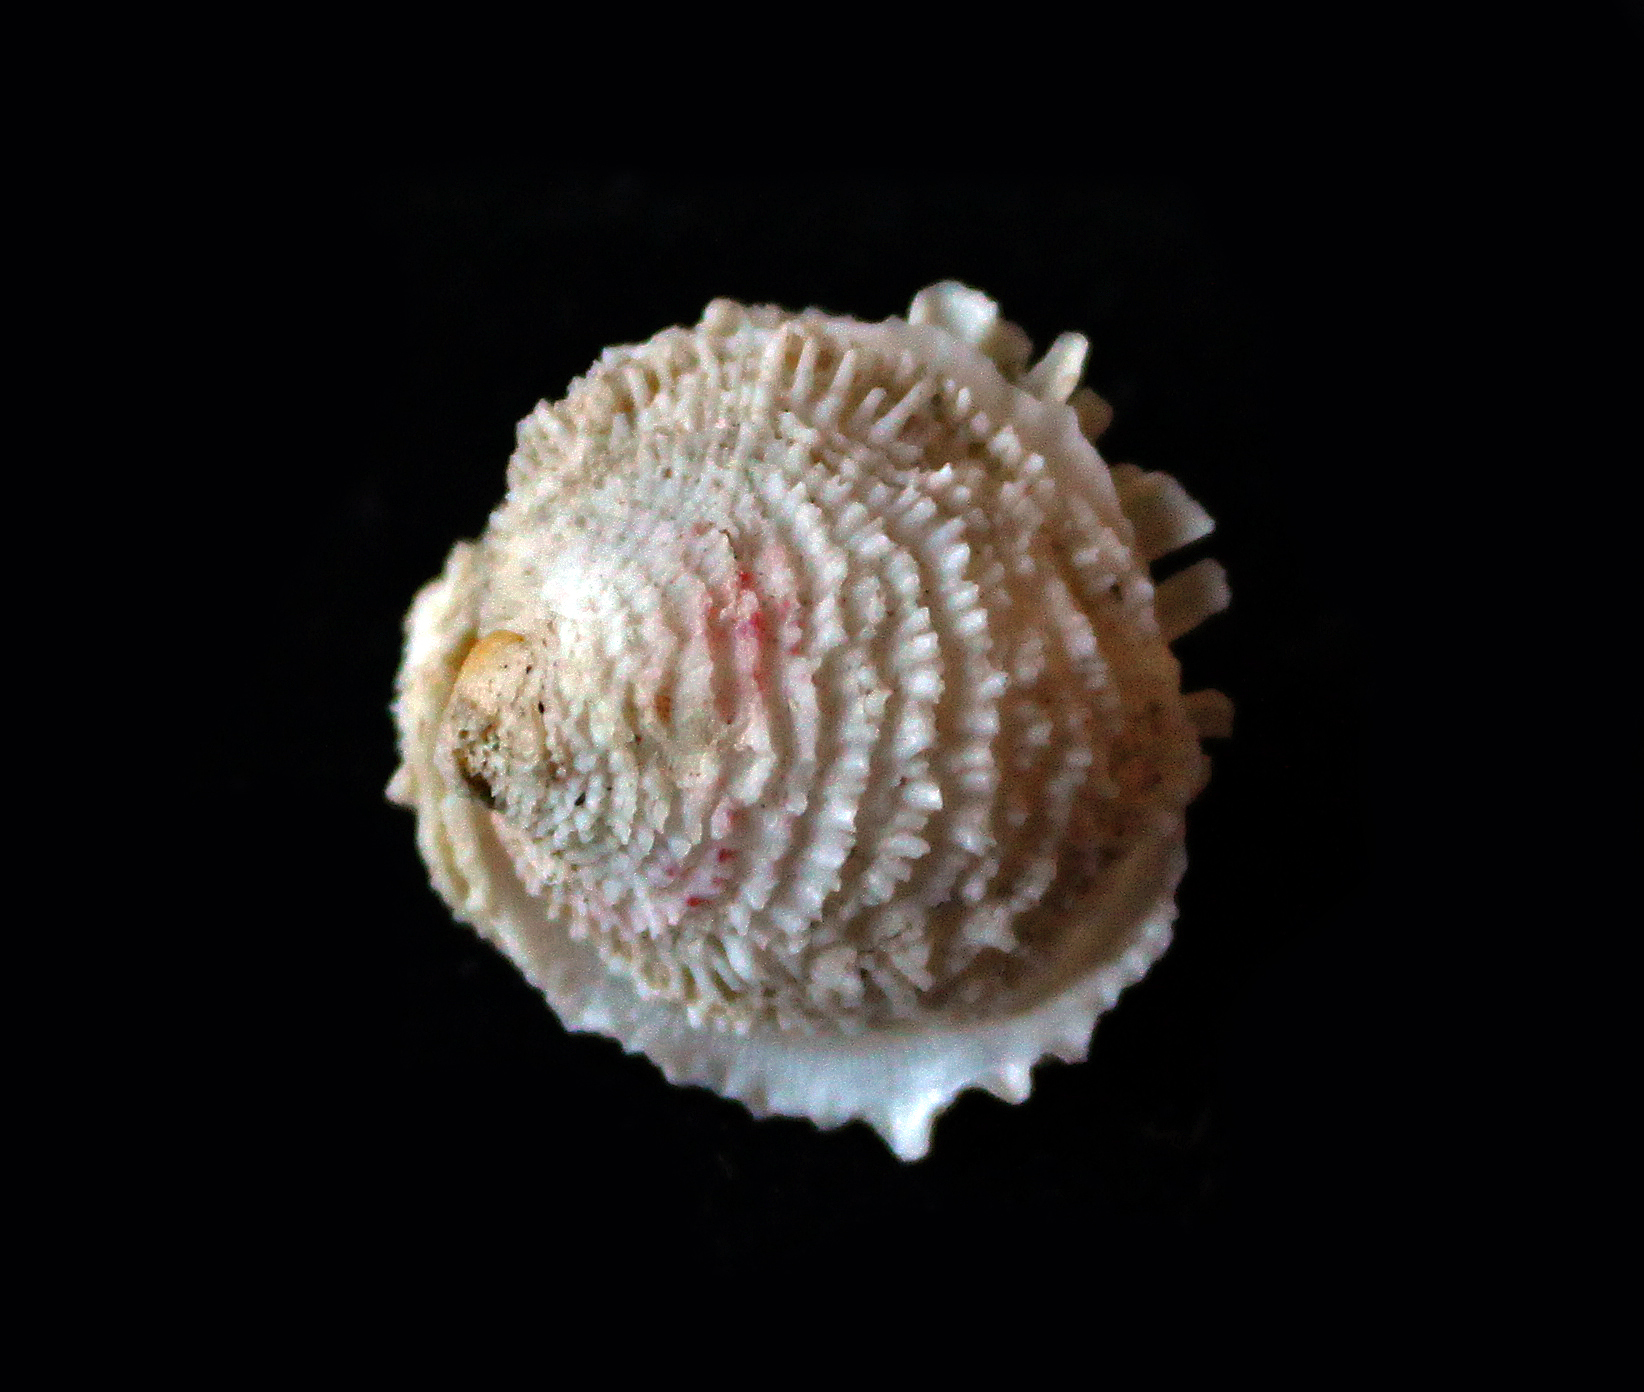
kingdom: Animalia
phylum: Mollusca
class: Bivalvia
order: Venerida
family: Chamidae
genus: Chama
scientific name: Chama gryphoides
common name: Common jewel box
